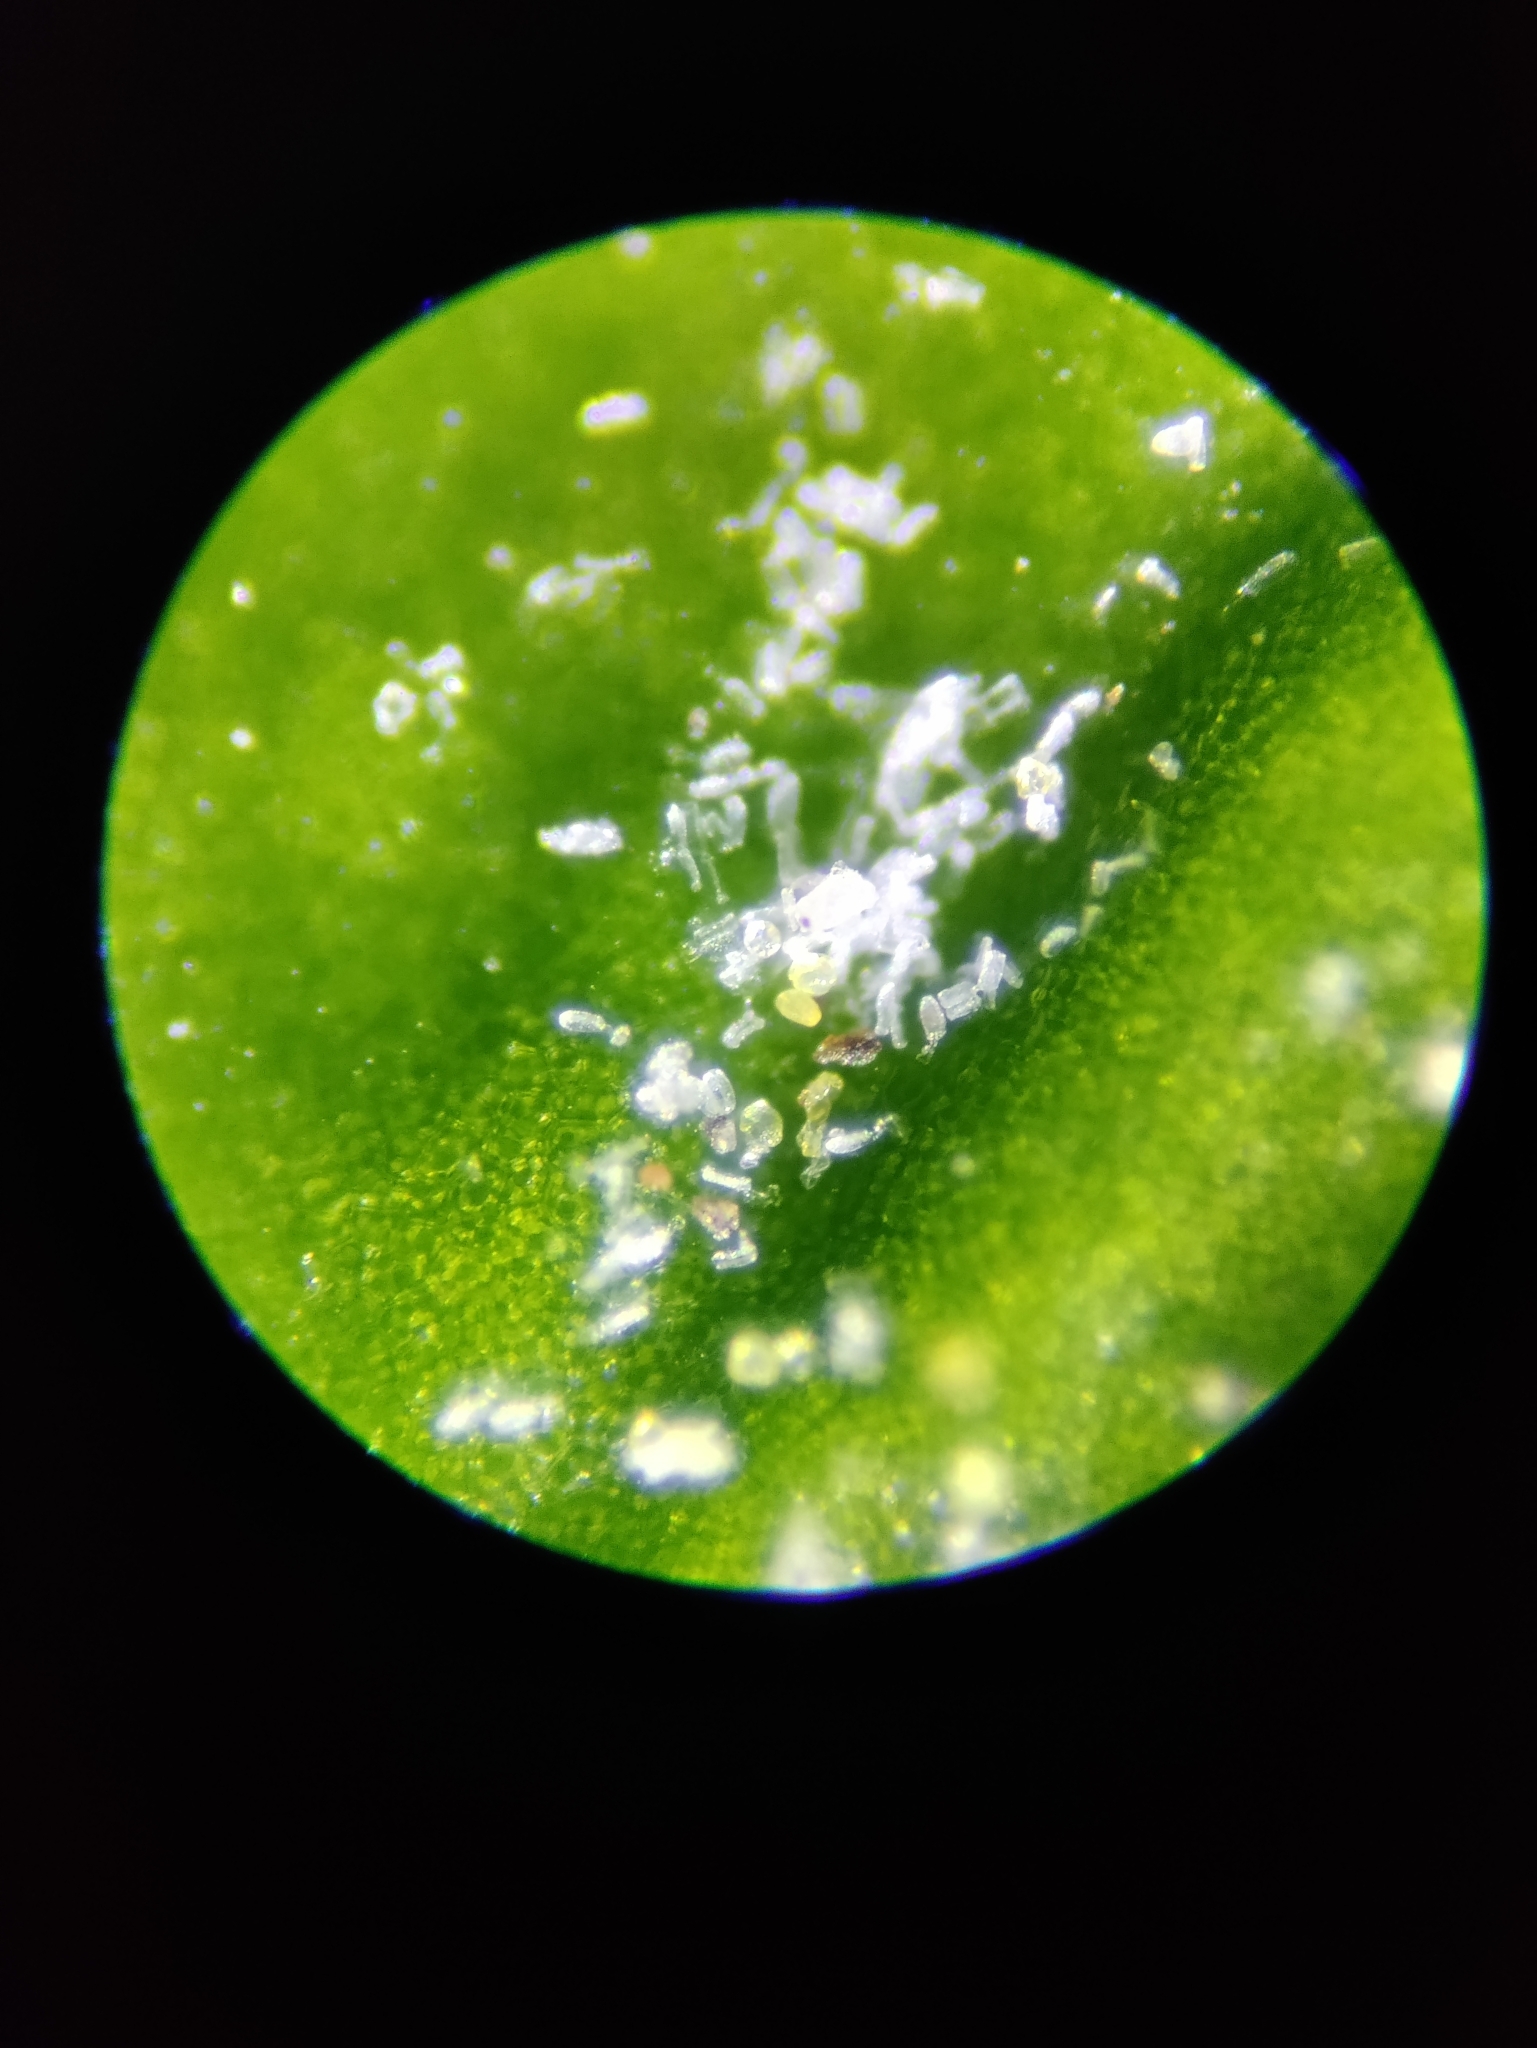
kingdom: Fungi
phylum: Ascomycota
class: Leotiomycetes
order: Helotiales
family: Erysiphaceae
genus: Erysiphe
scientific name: Erysiphe euonymicola
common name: Spindletree mildew
